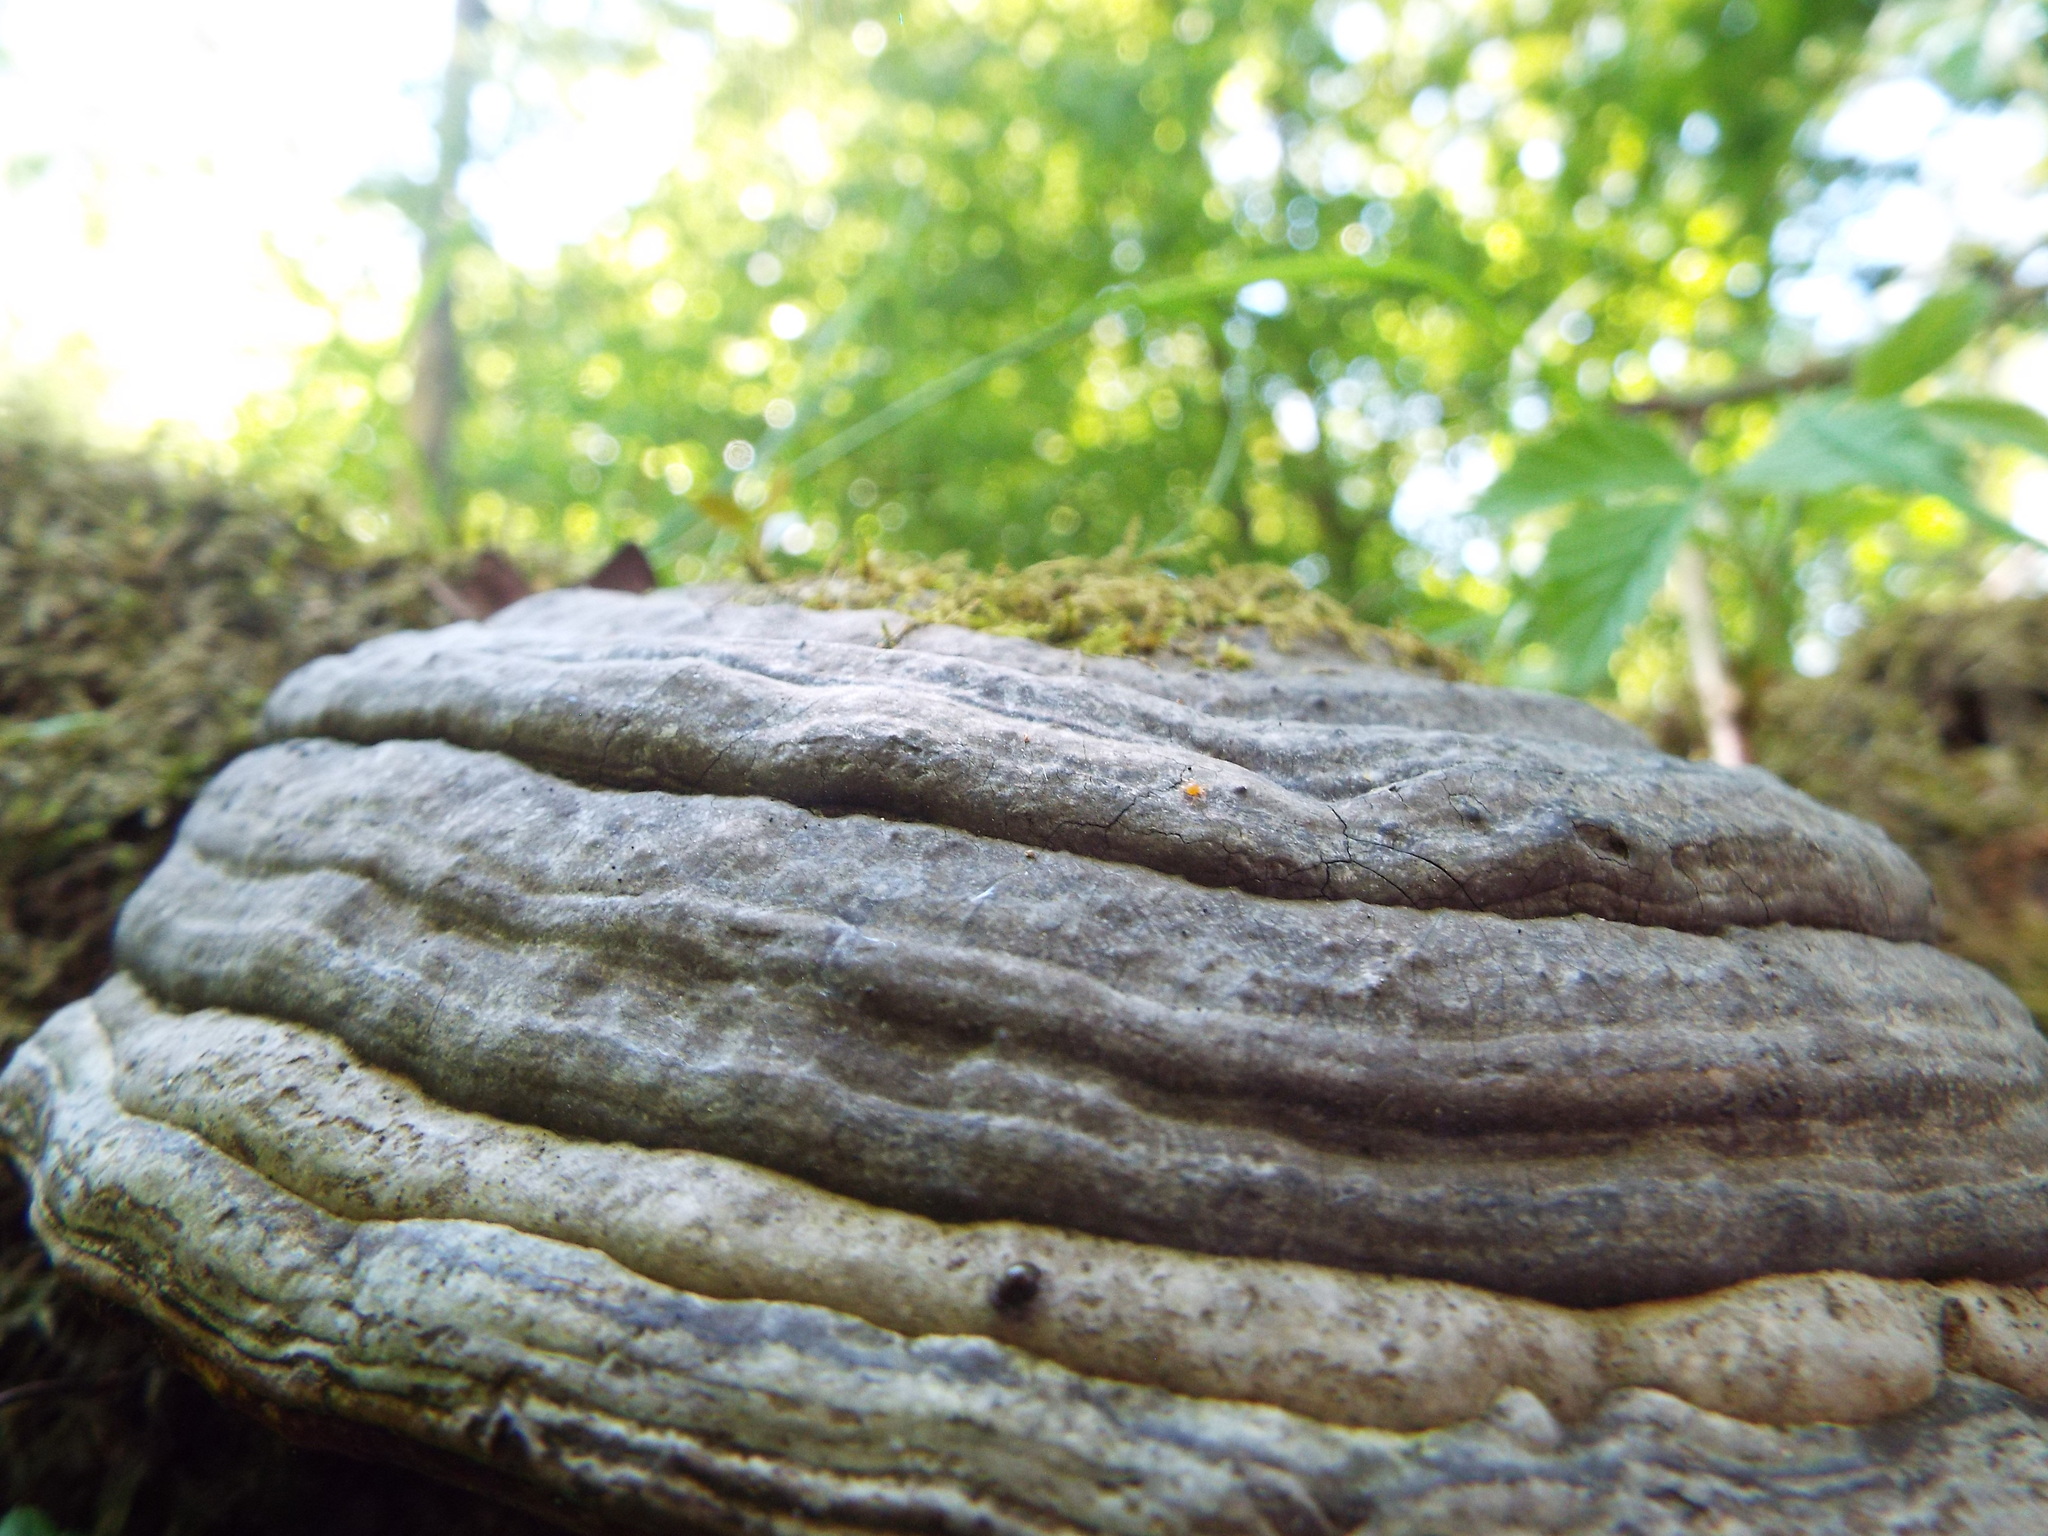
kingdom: Fungi
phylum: Basidiomycota
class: Agaricomycetes
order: Polyporales
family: Polyporaceae
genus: Fomes
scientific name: Fomes fomentarius
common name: Hoof fungus
